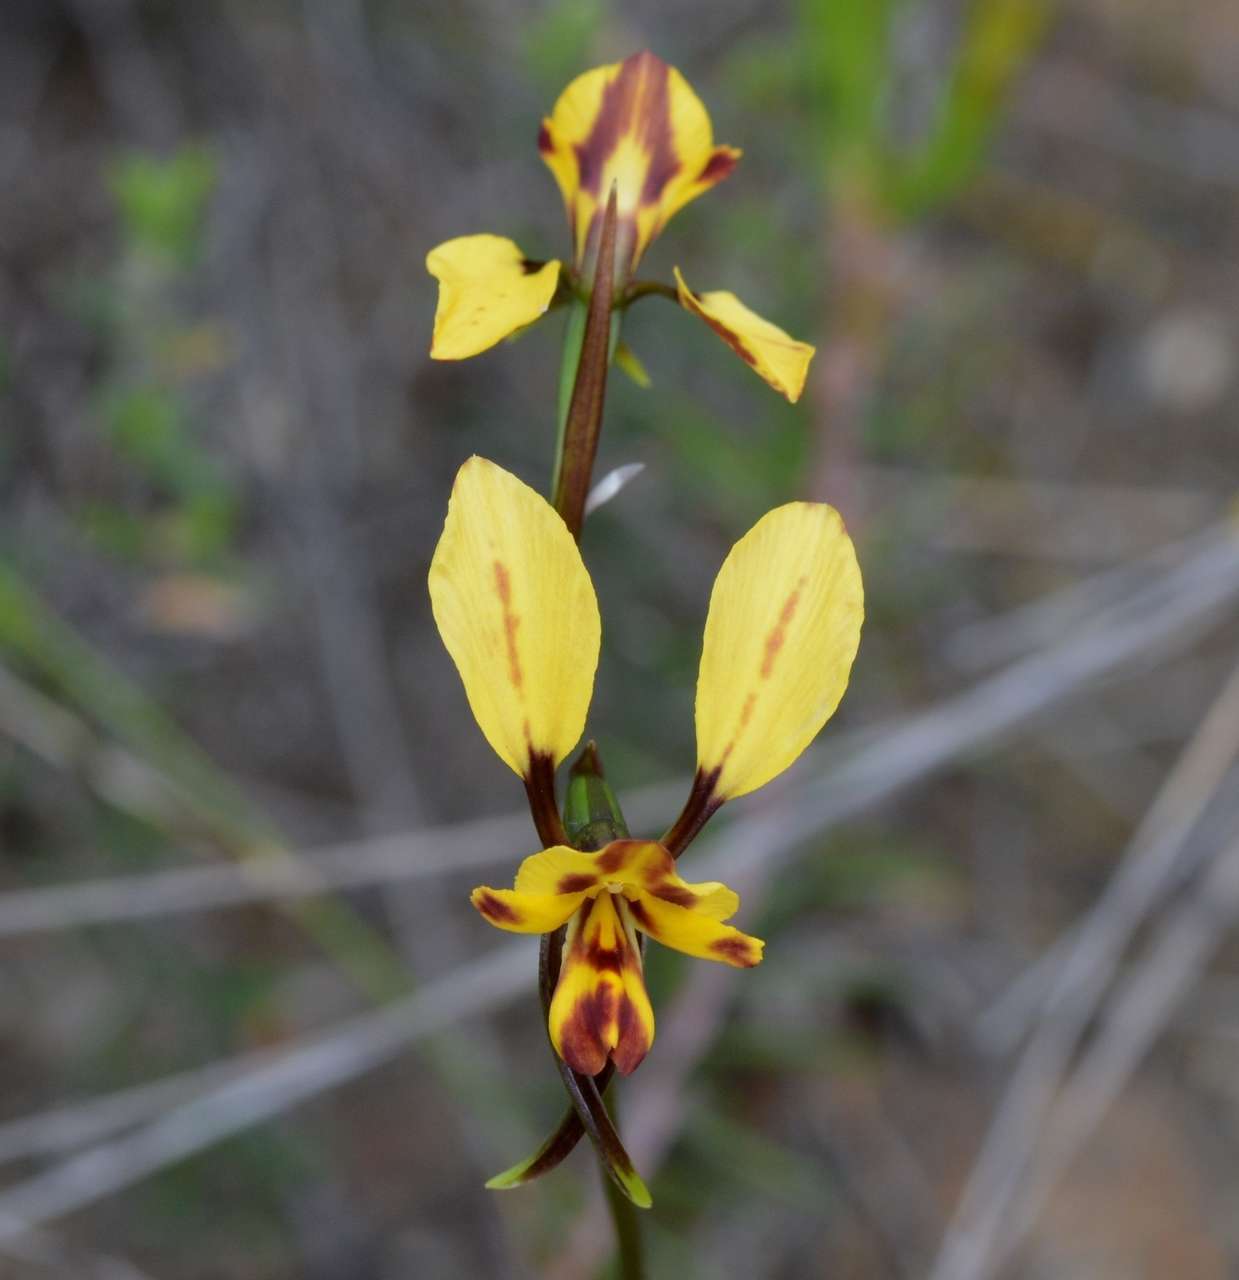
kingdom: Plantae
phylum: Tracheophyta
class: Liliopsida
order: Asparagales
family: Orchidaceae
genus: Diuris
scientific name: Diuris pardina
